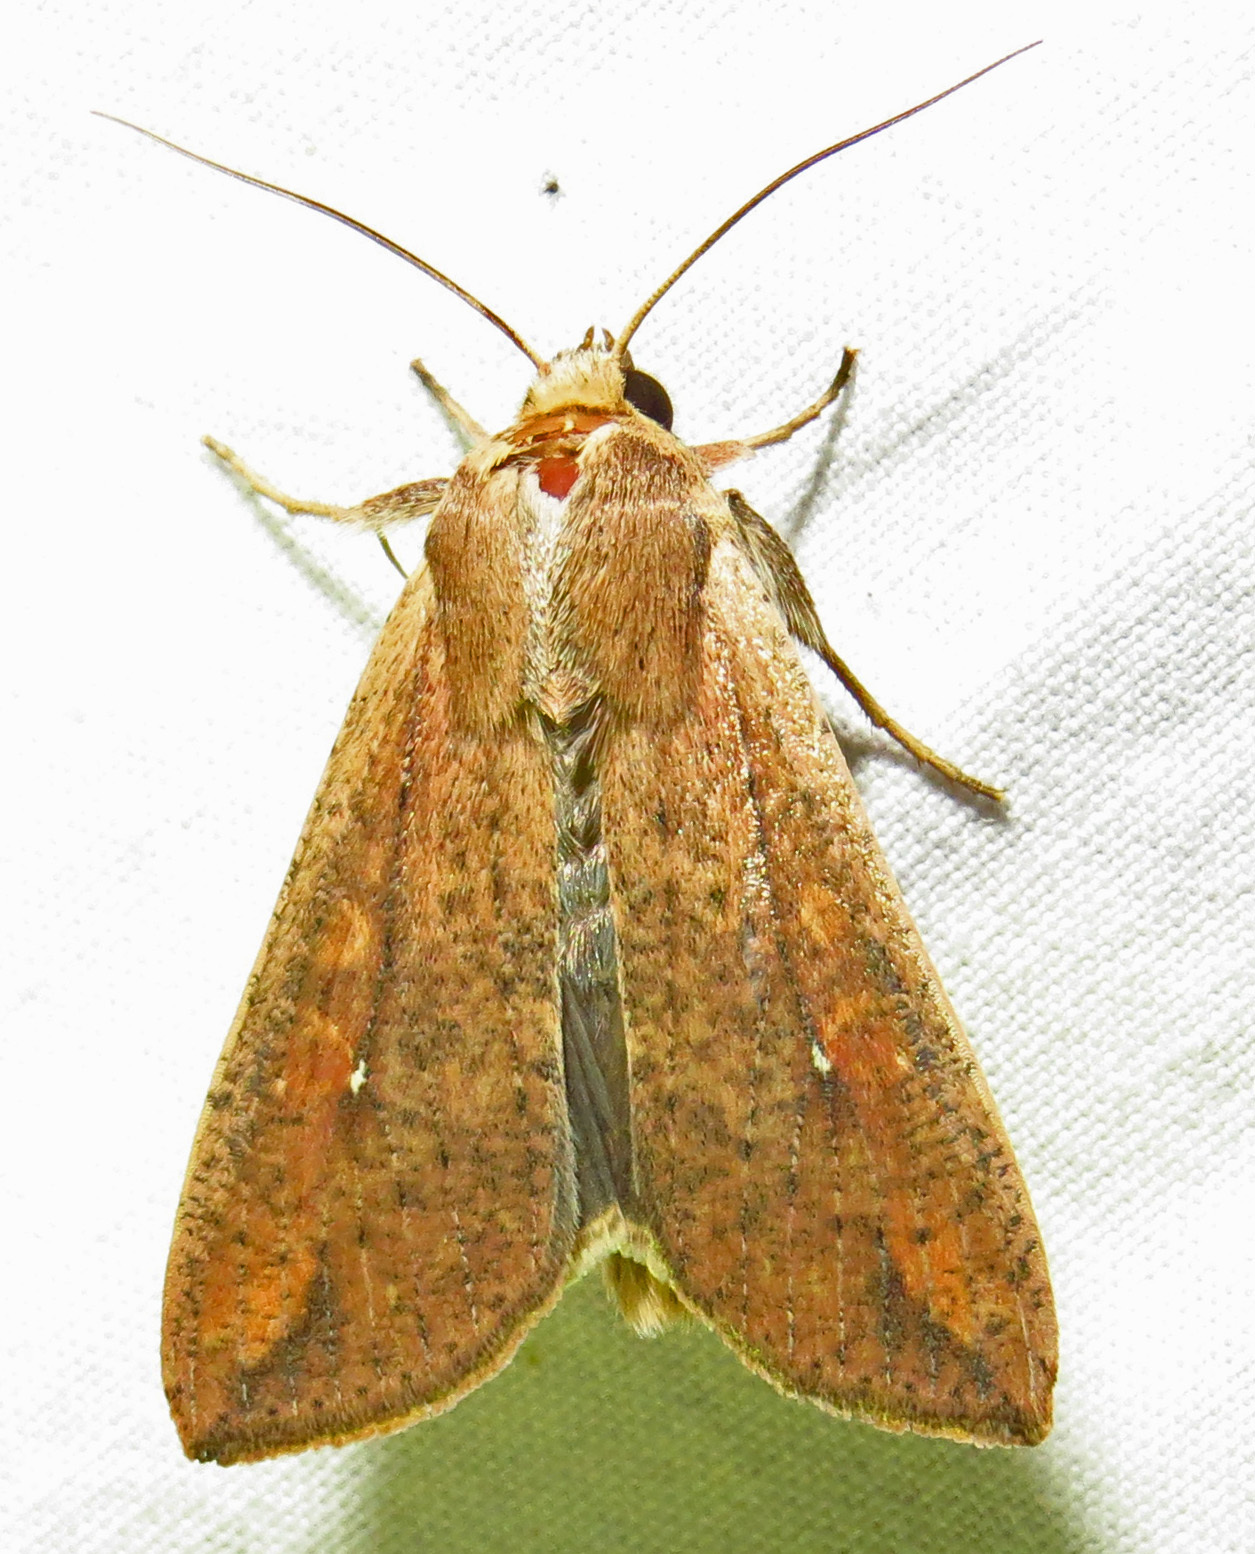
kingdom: Animalia
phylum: Arthropoda
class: Insecta
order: Lepidoptera
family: Noctuidae
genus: Mythimna
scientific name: Mythimna unipuncta
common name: White-speck
